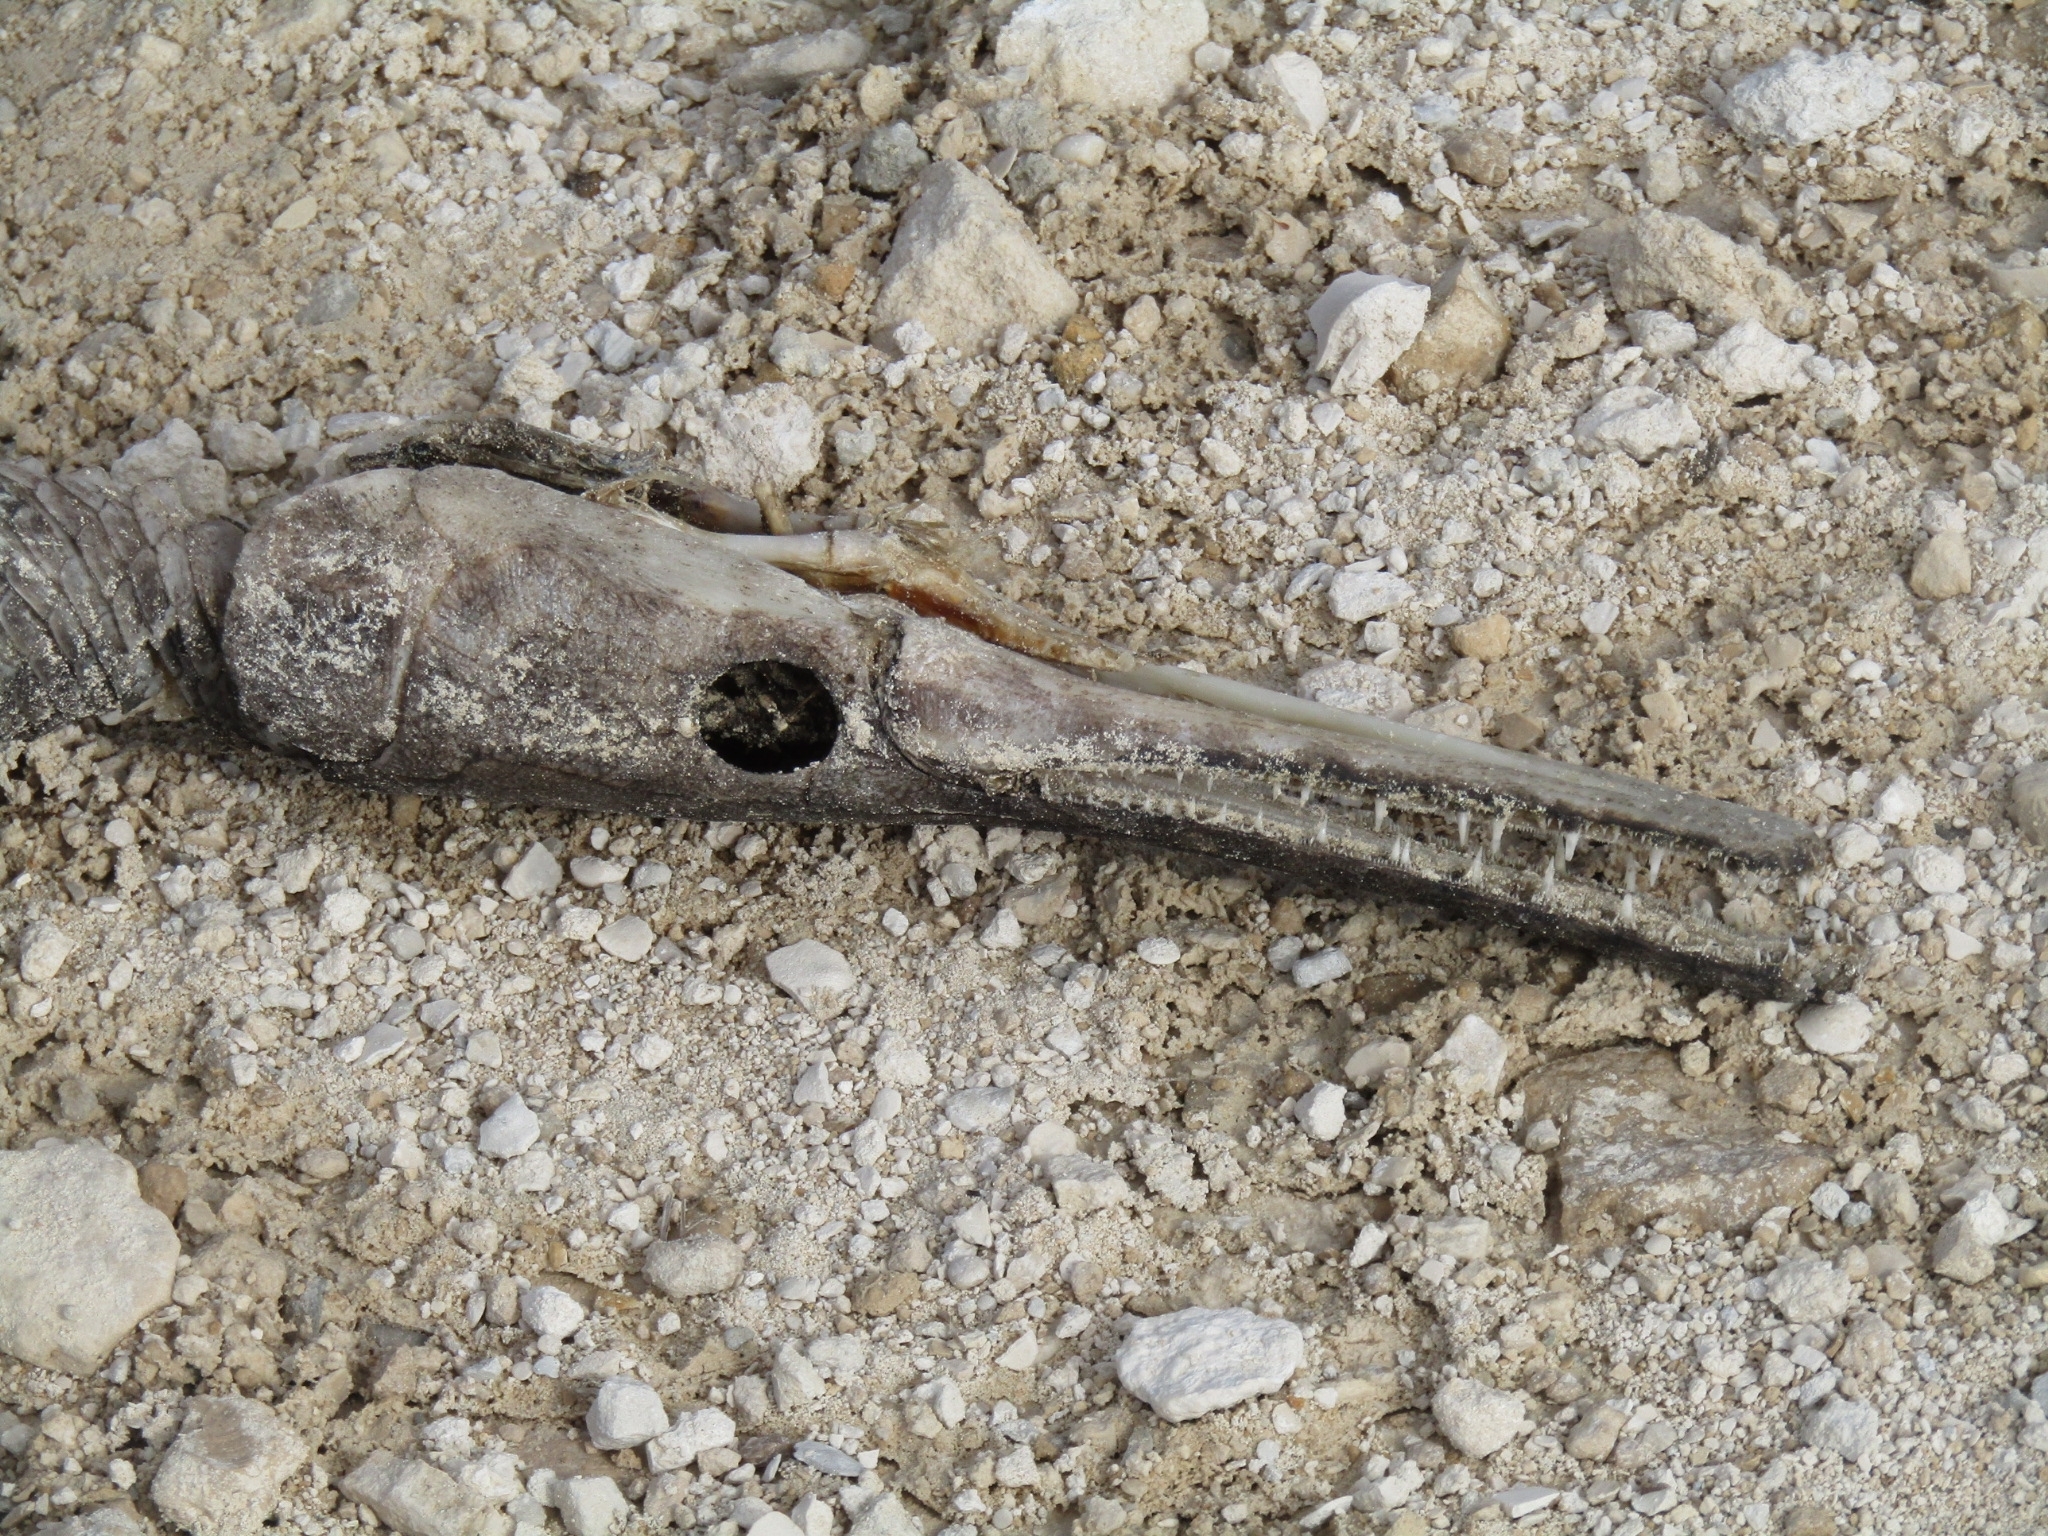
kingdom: Animalia
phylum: Chordata
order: Lepisosteiformes
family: Lepisosteidae
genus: Lepisosteus
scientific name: Lepisosteus platyrhincus
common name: Florida gar
